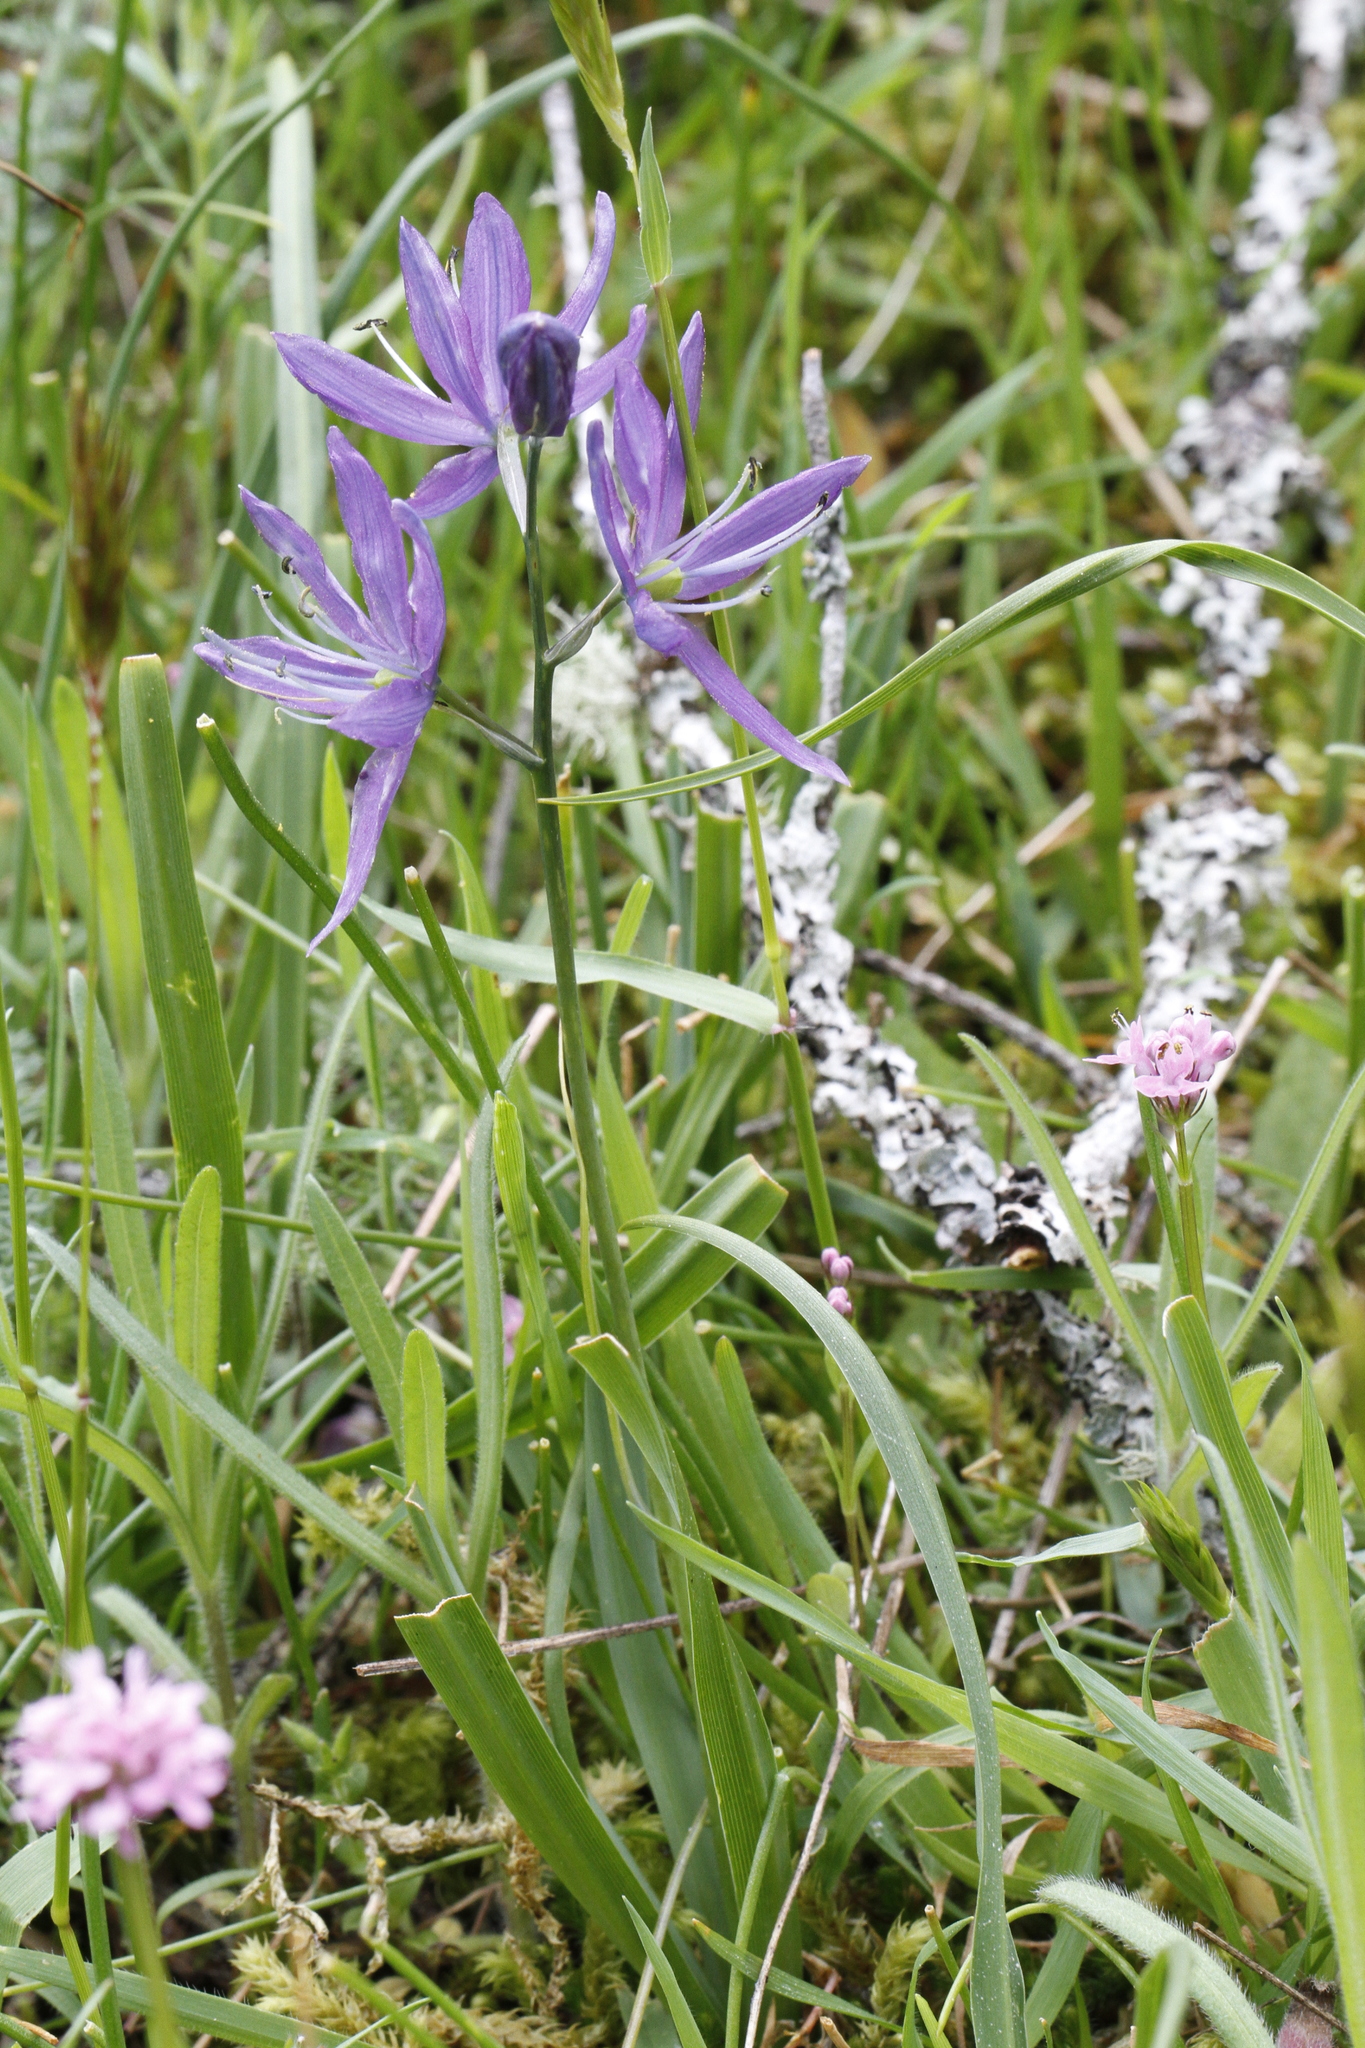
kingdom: Plantae
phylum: Tracheophyta
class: Liliopsida
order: Asparagales
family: Asparagaceae
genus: Camassia
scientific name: Camassia quamash
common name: Common camas
